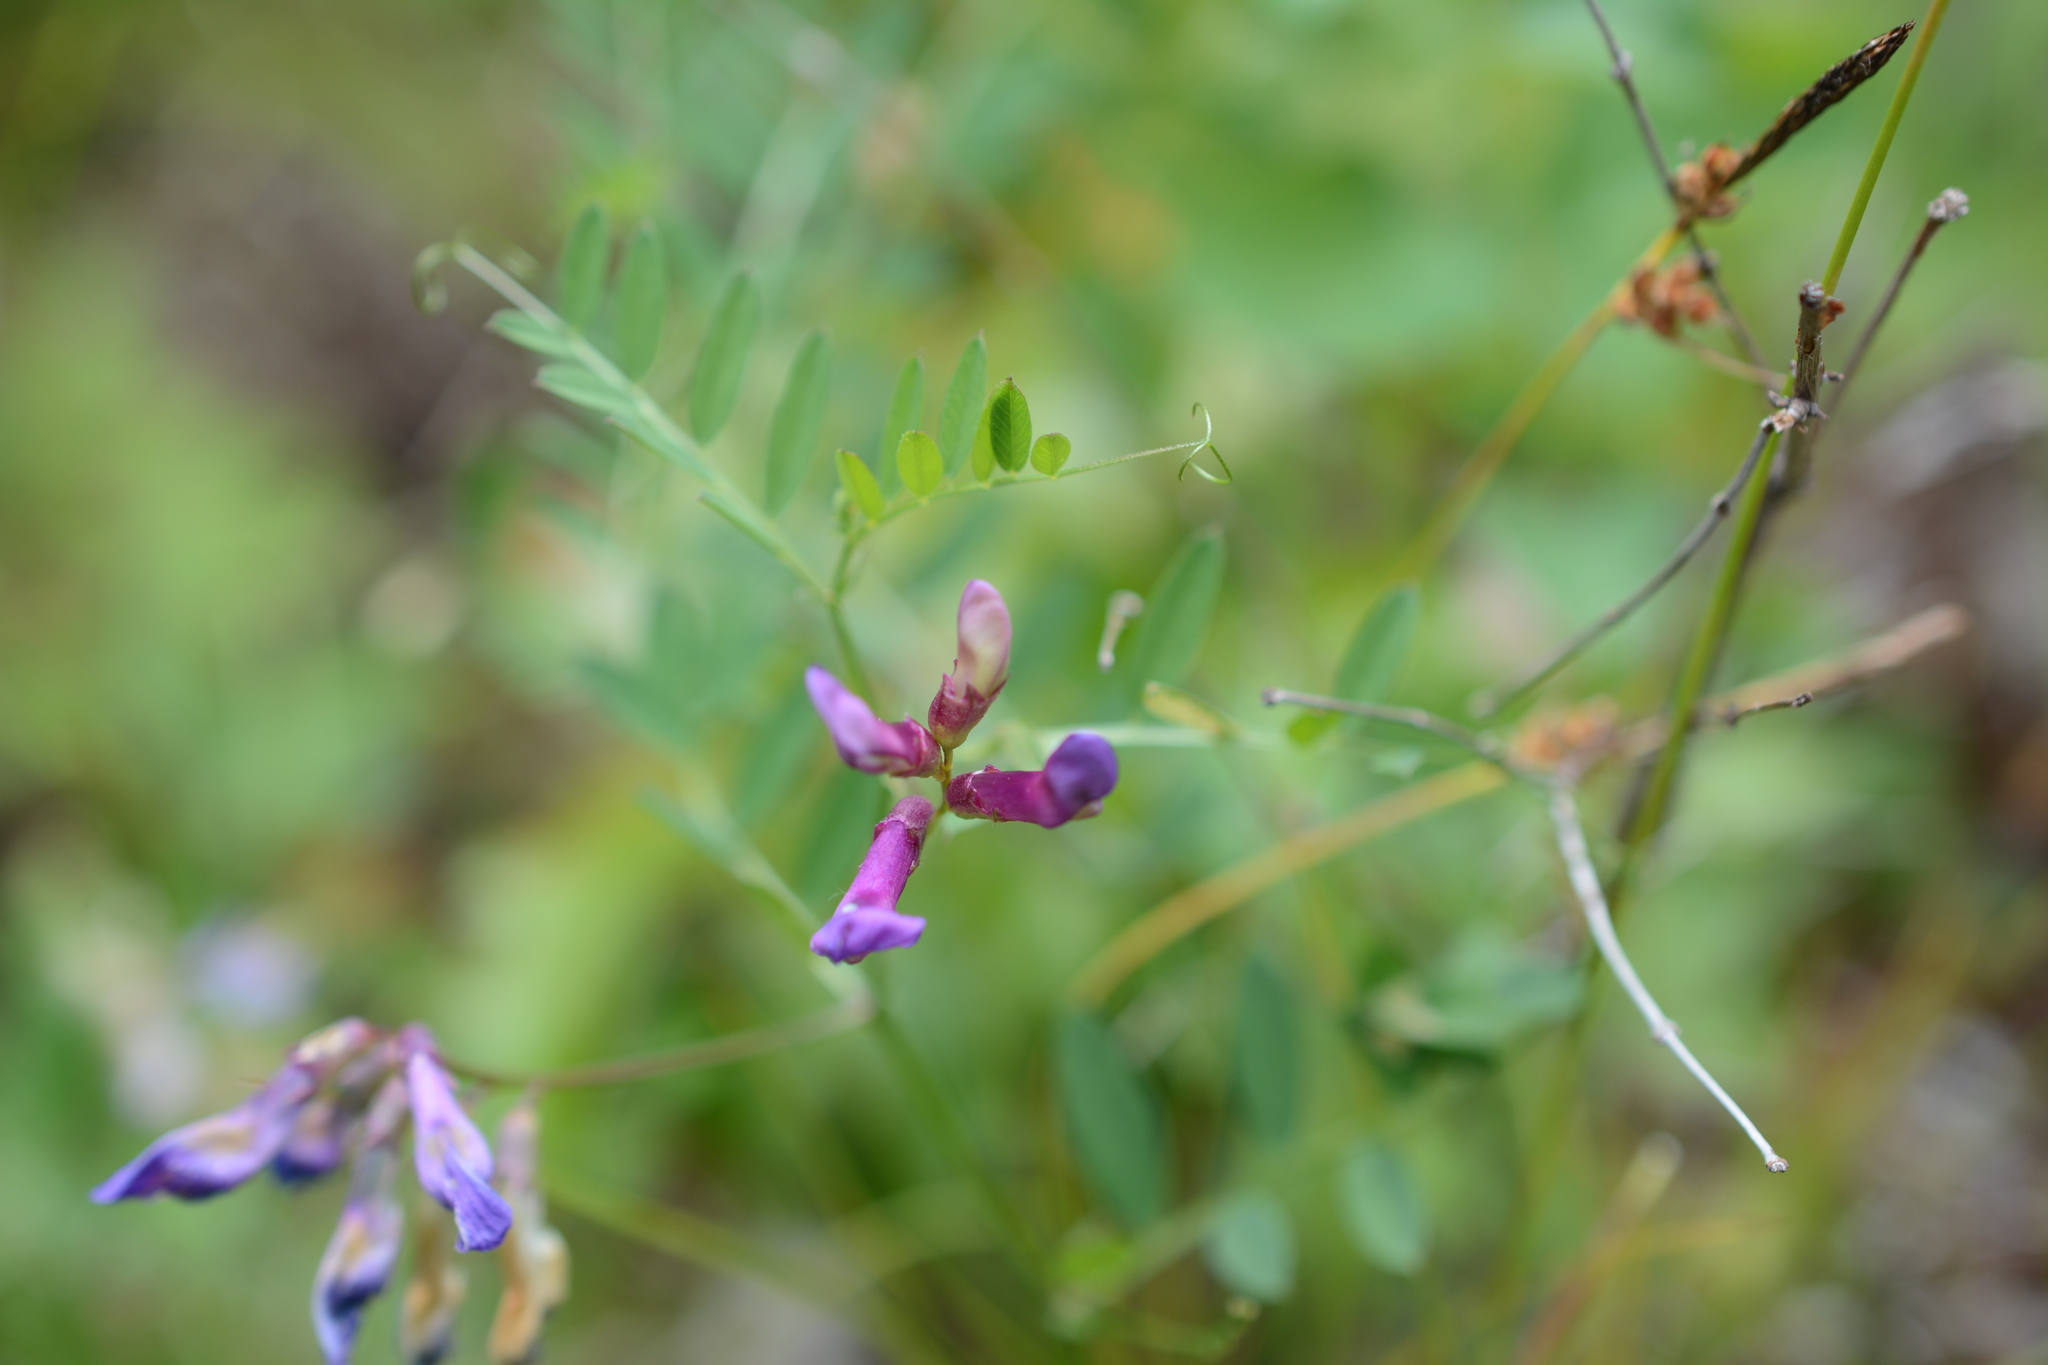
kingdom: Plantae
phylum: Tracheophyta
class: Magnoliopsida
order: Fabales
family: Fabaceae
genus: Vicia
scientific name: Vicia americana
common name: American vetch
